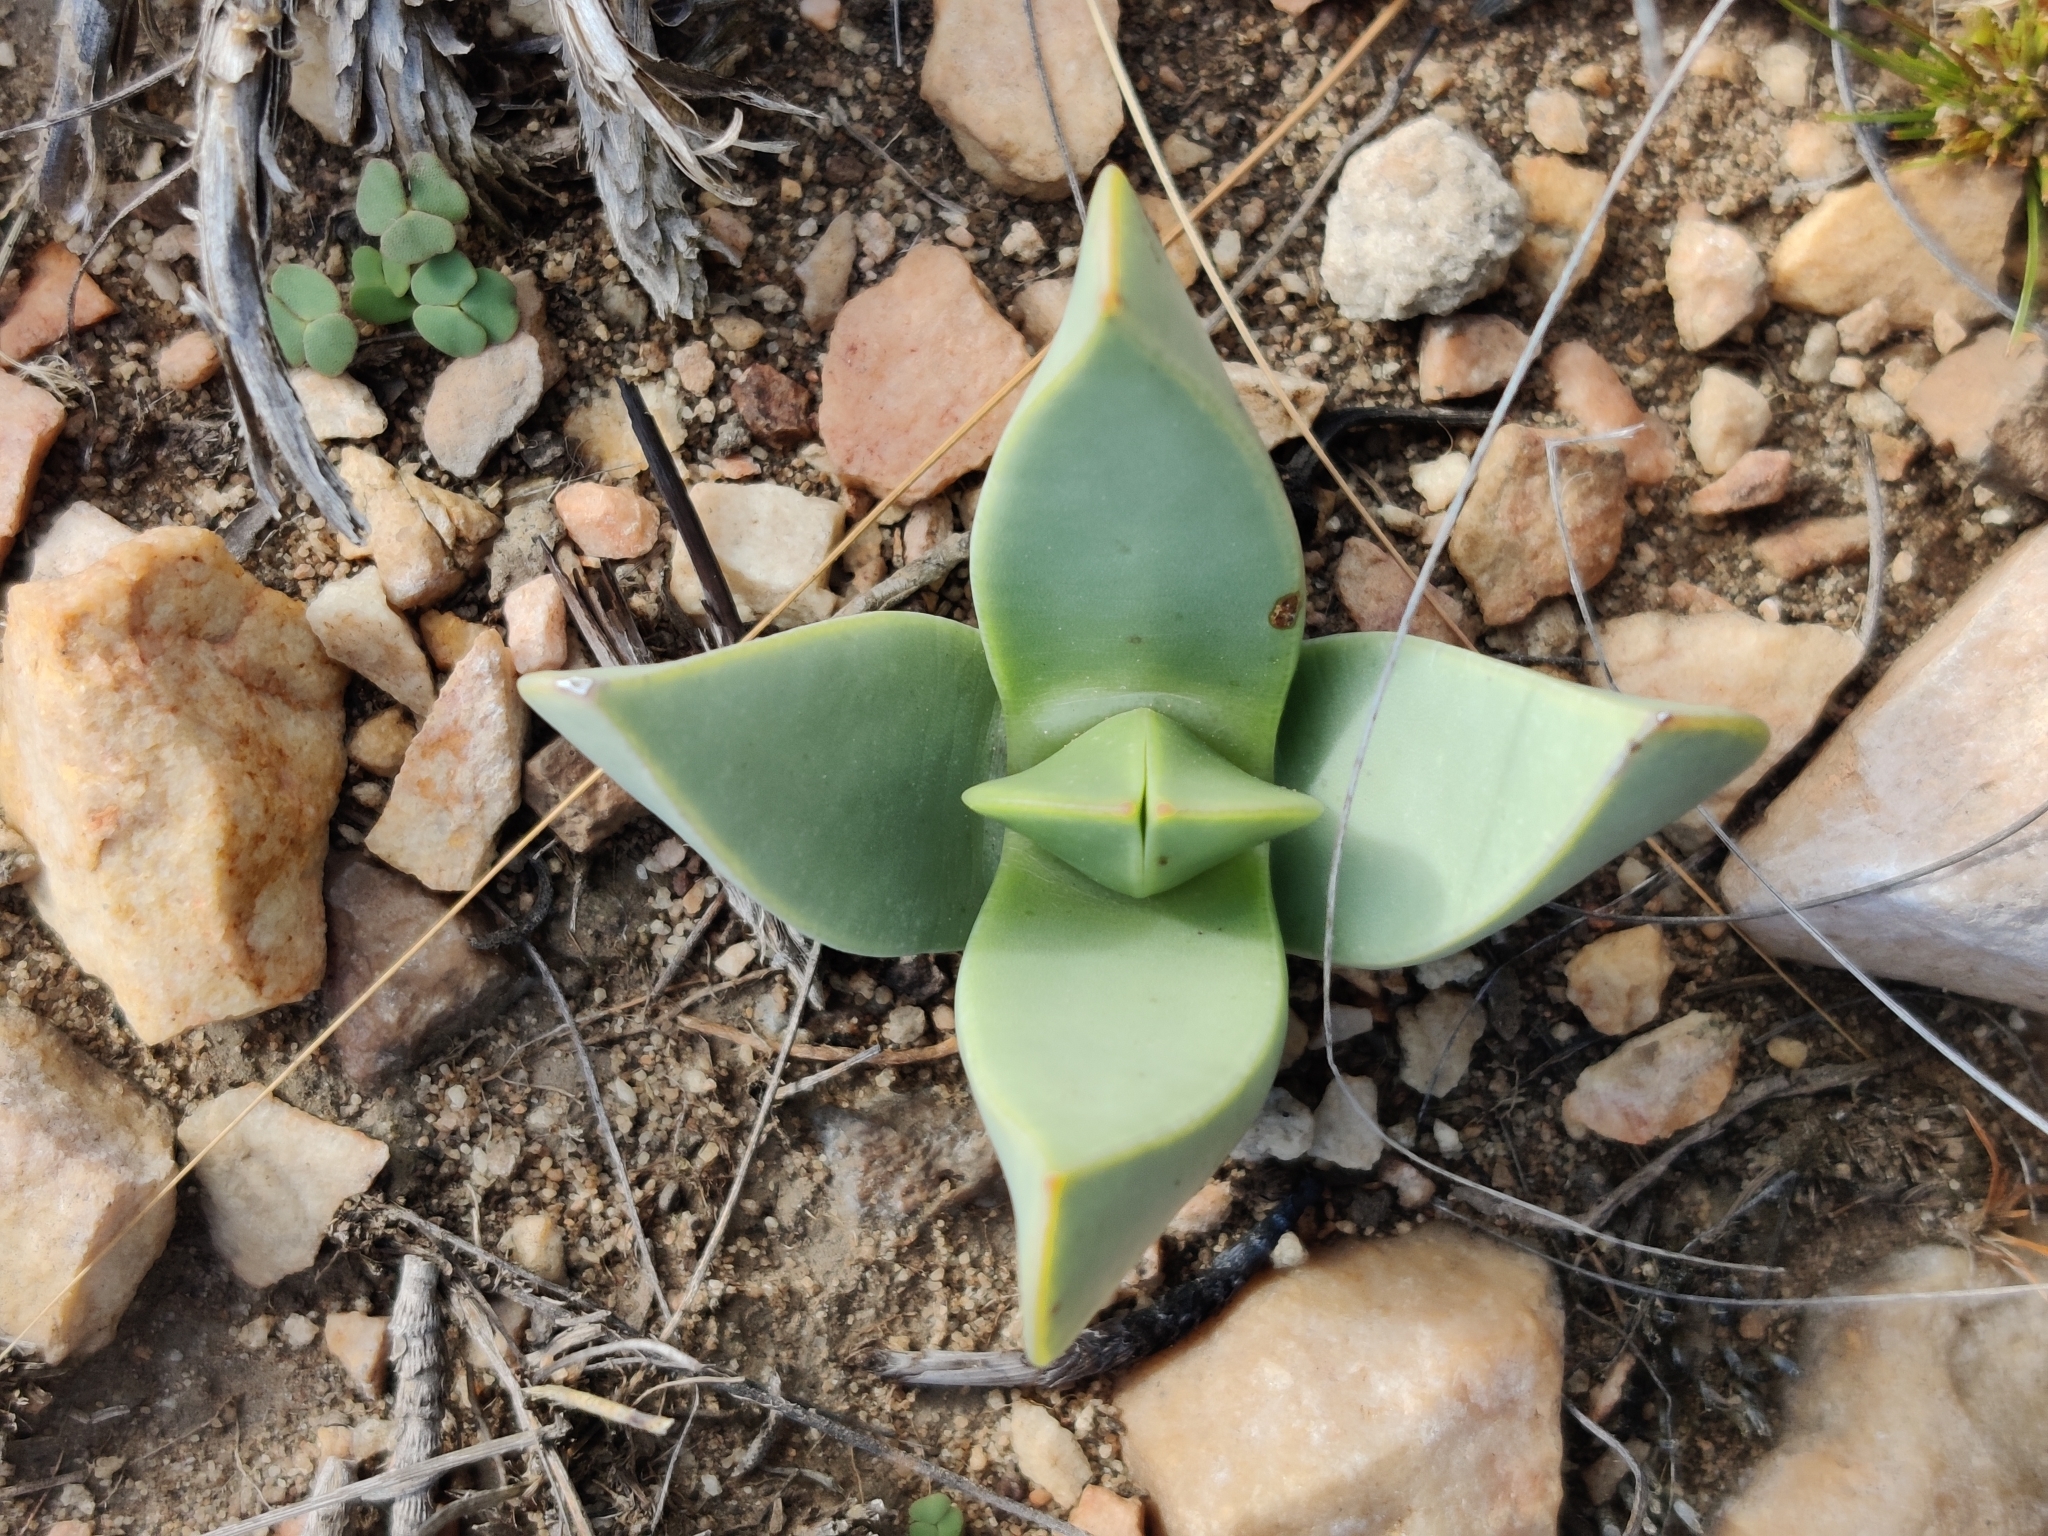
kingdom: Plantae
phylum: Tracheophyta
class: Magnoliopsida
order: Caryophyllales
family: Aizoaceae
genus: Machairophyllum
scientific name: Machairophyllum bijlii
